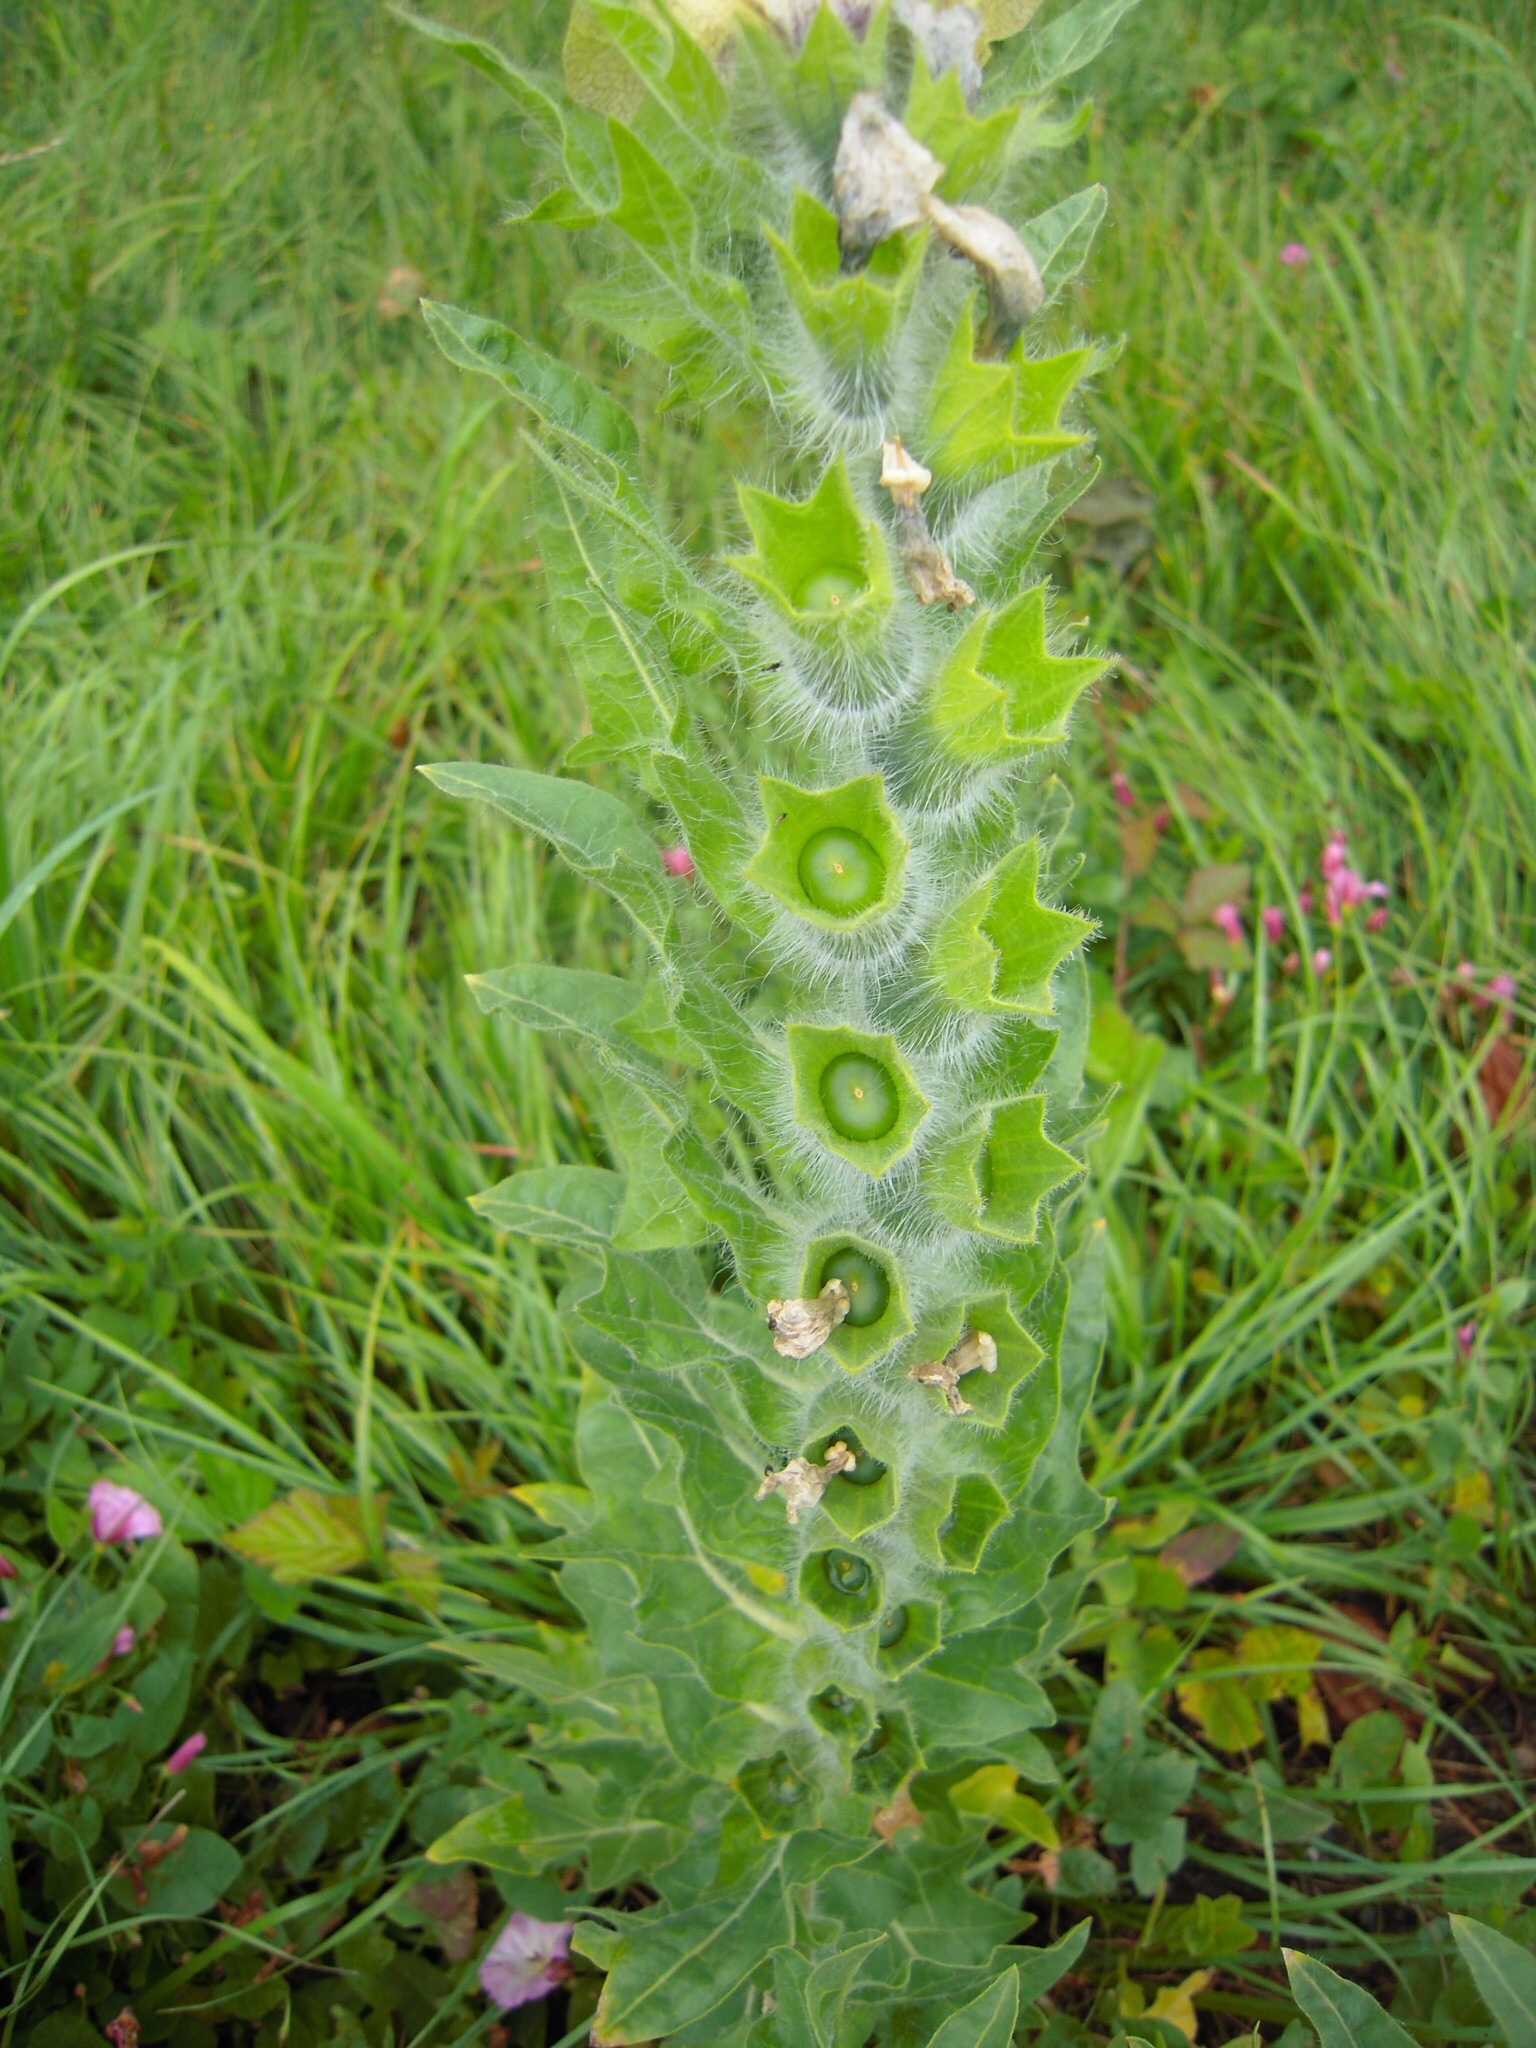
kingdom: Plantae
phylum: Tracheophyta
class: Magnoliopsida
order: Solanales
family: Solanaceae
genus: Hyoscyamus
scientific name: Hyoscyamus niger
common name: Henbane
